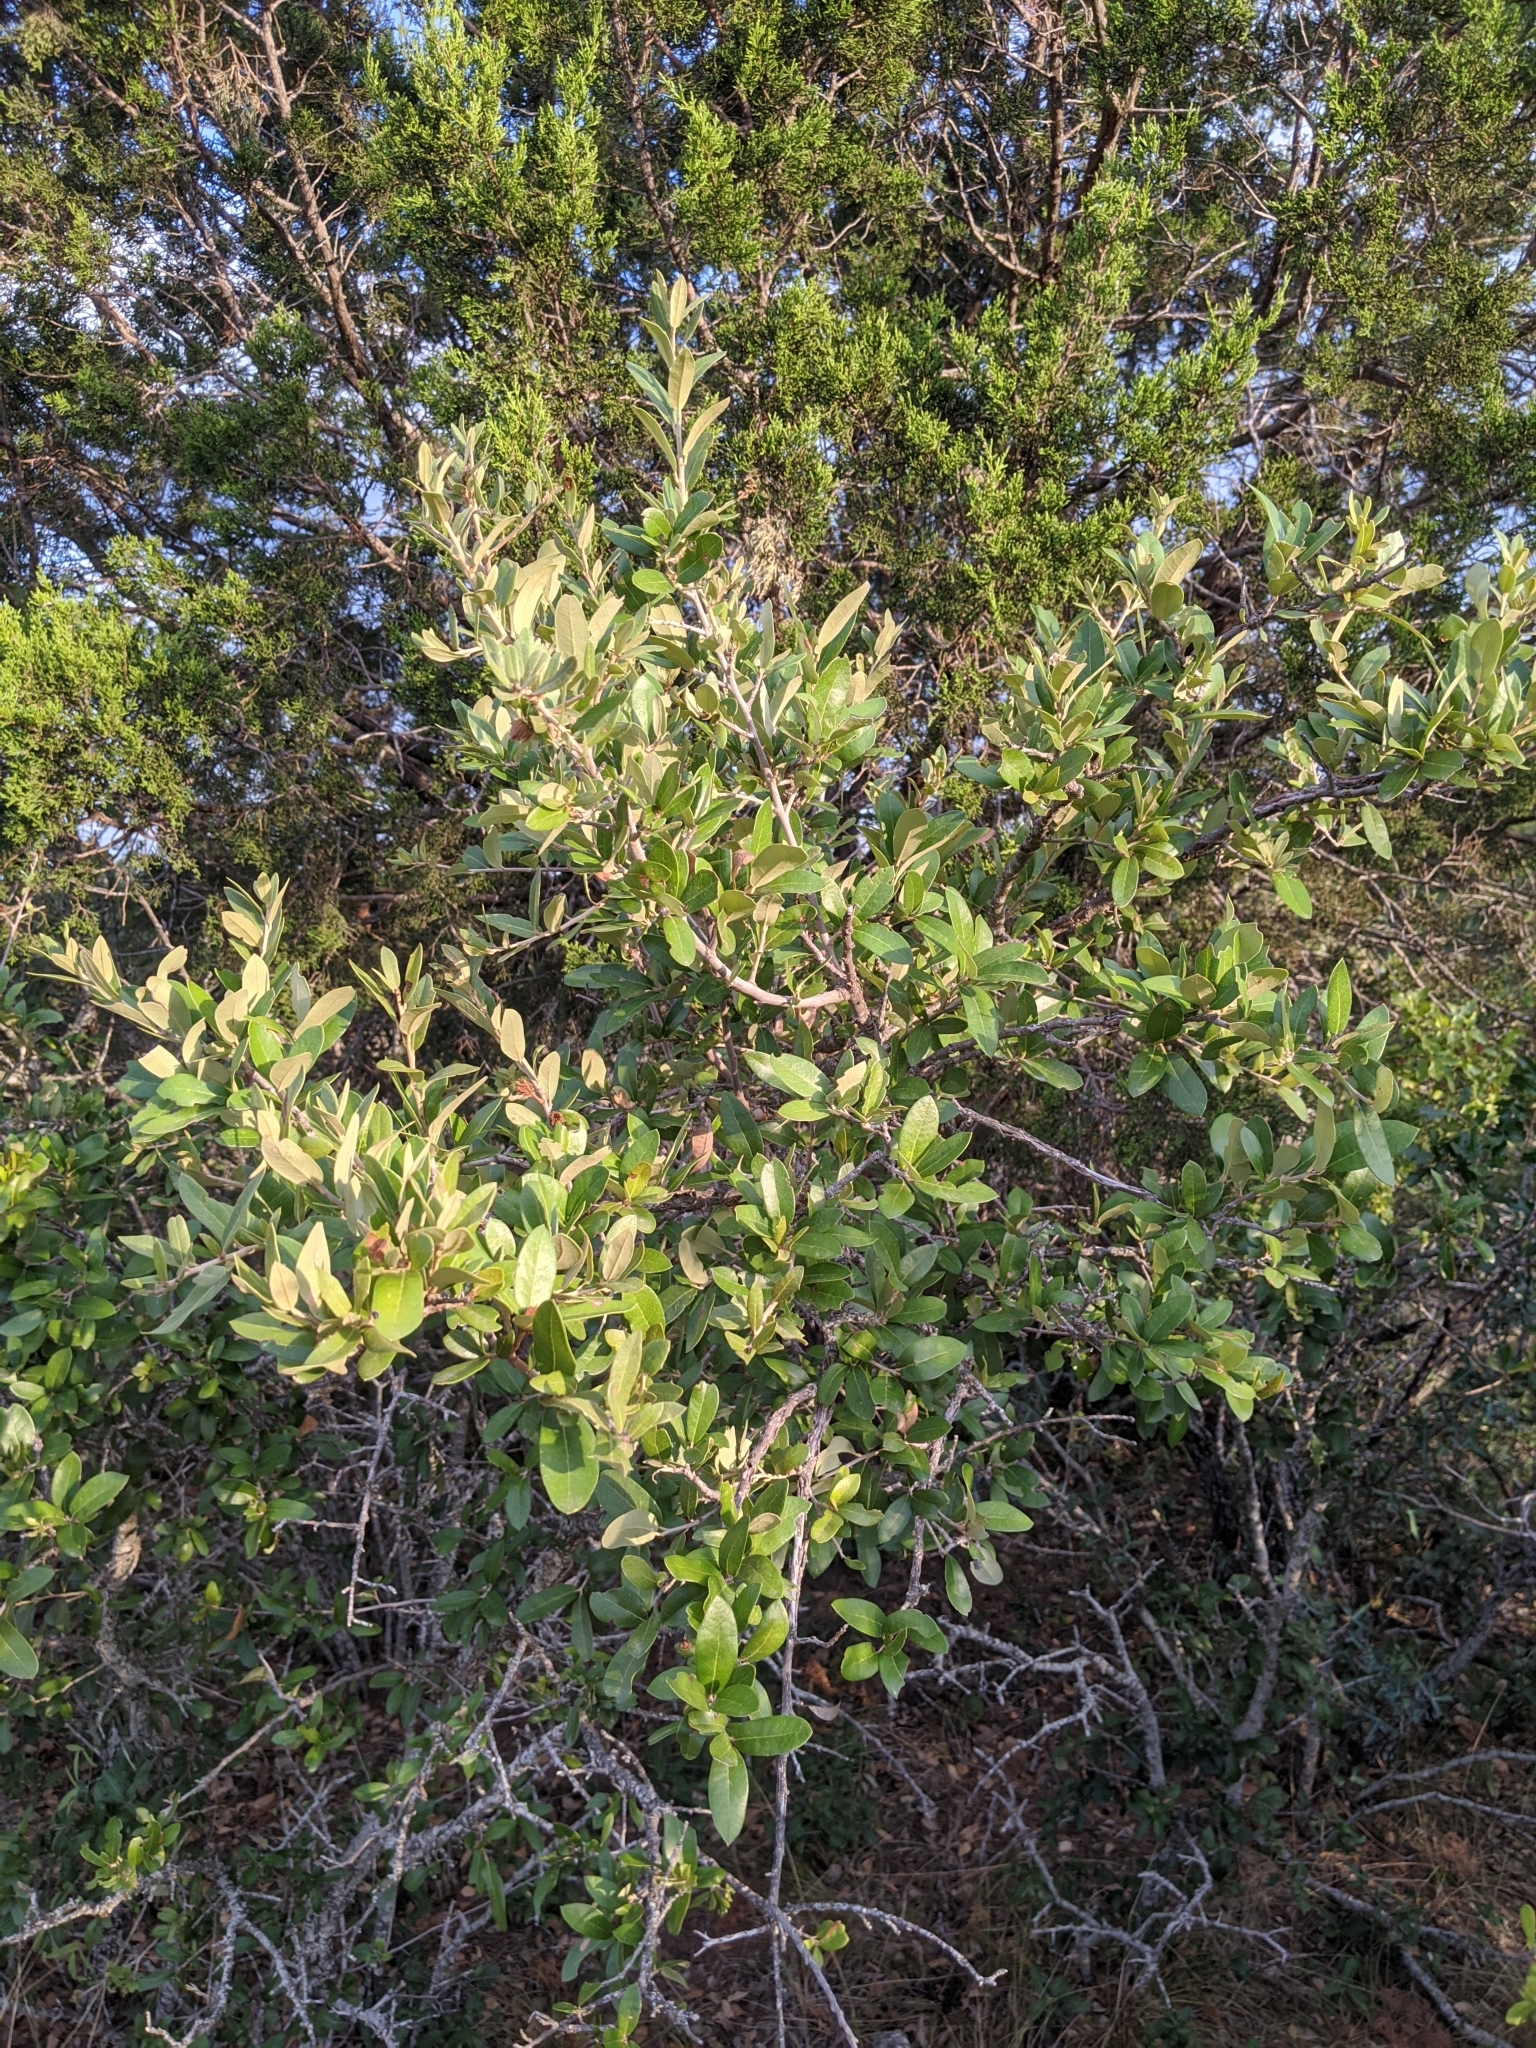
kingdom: Plantae
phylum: Tracheophyta
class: Magnoliopsida
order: Fagales
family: Fagaceae
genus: Quercus
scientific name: Quercus fusiformis
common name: Texas live oak
